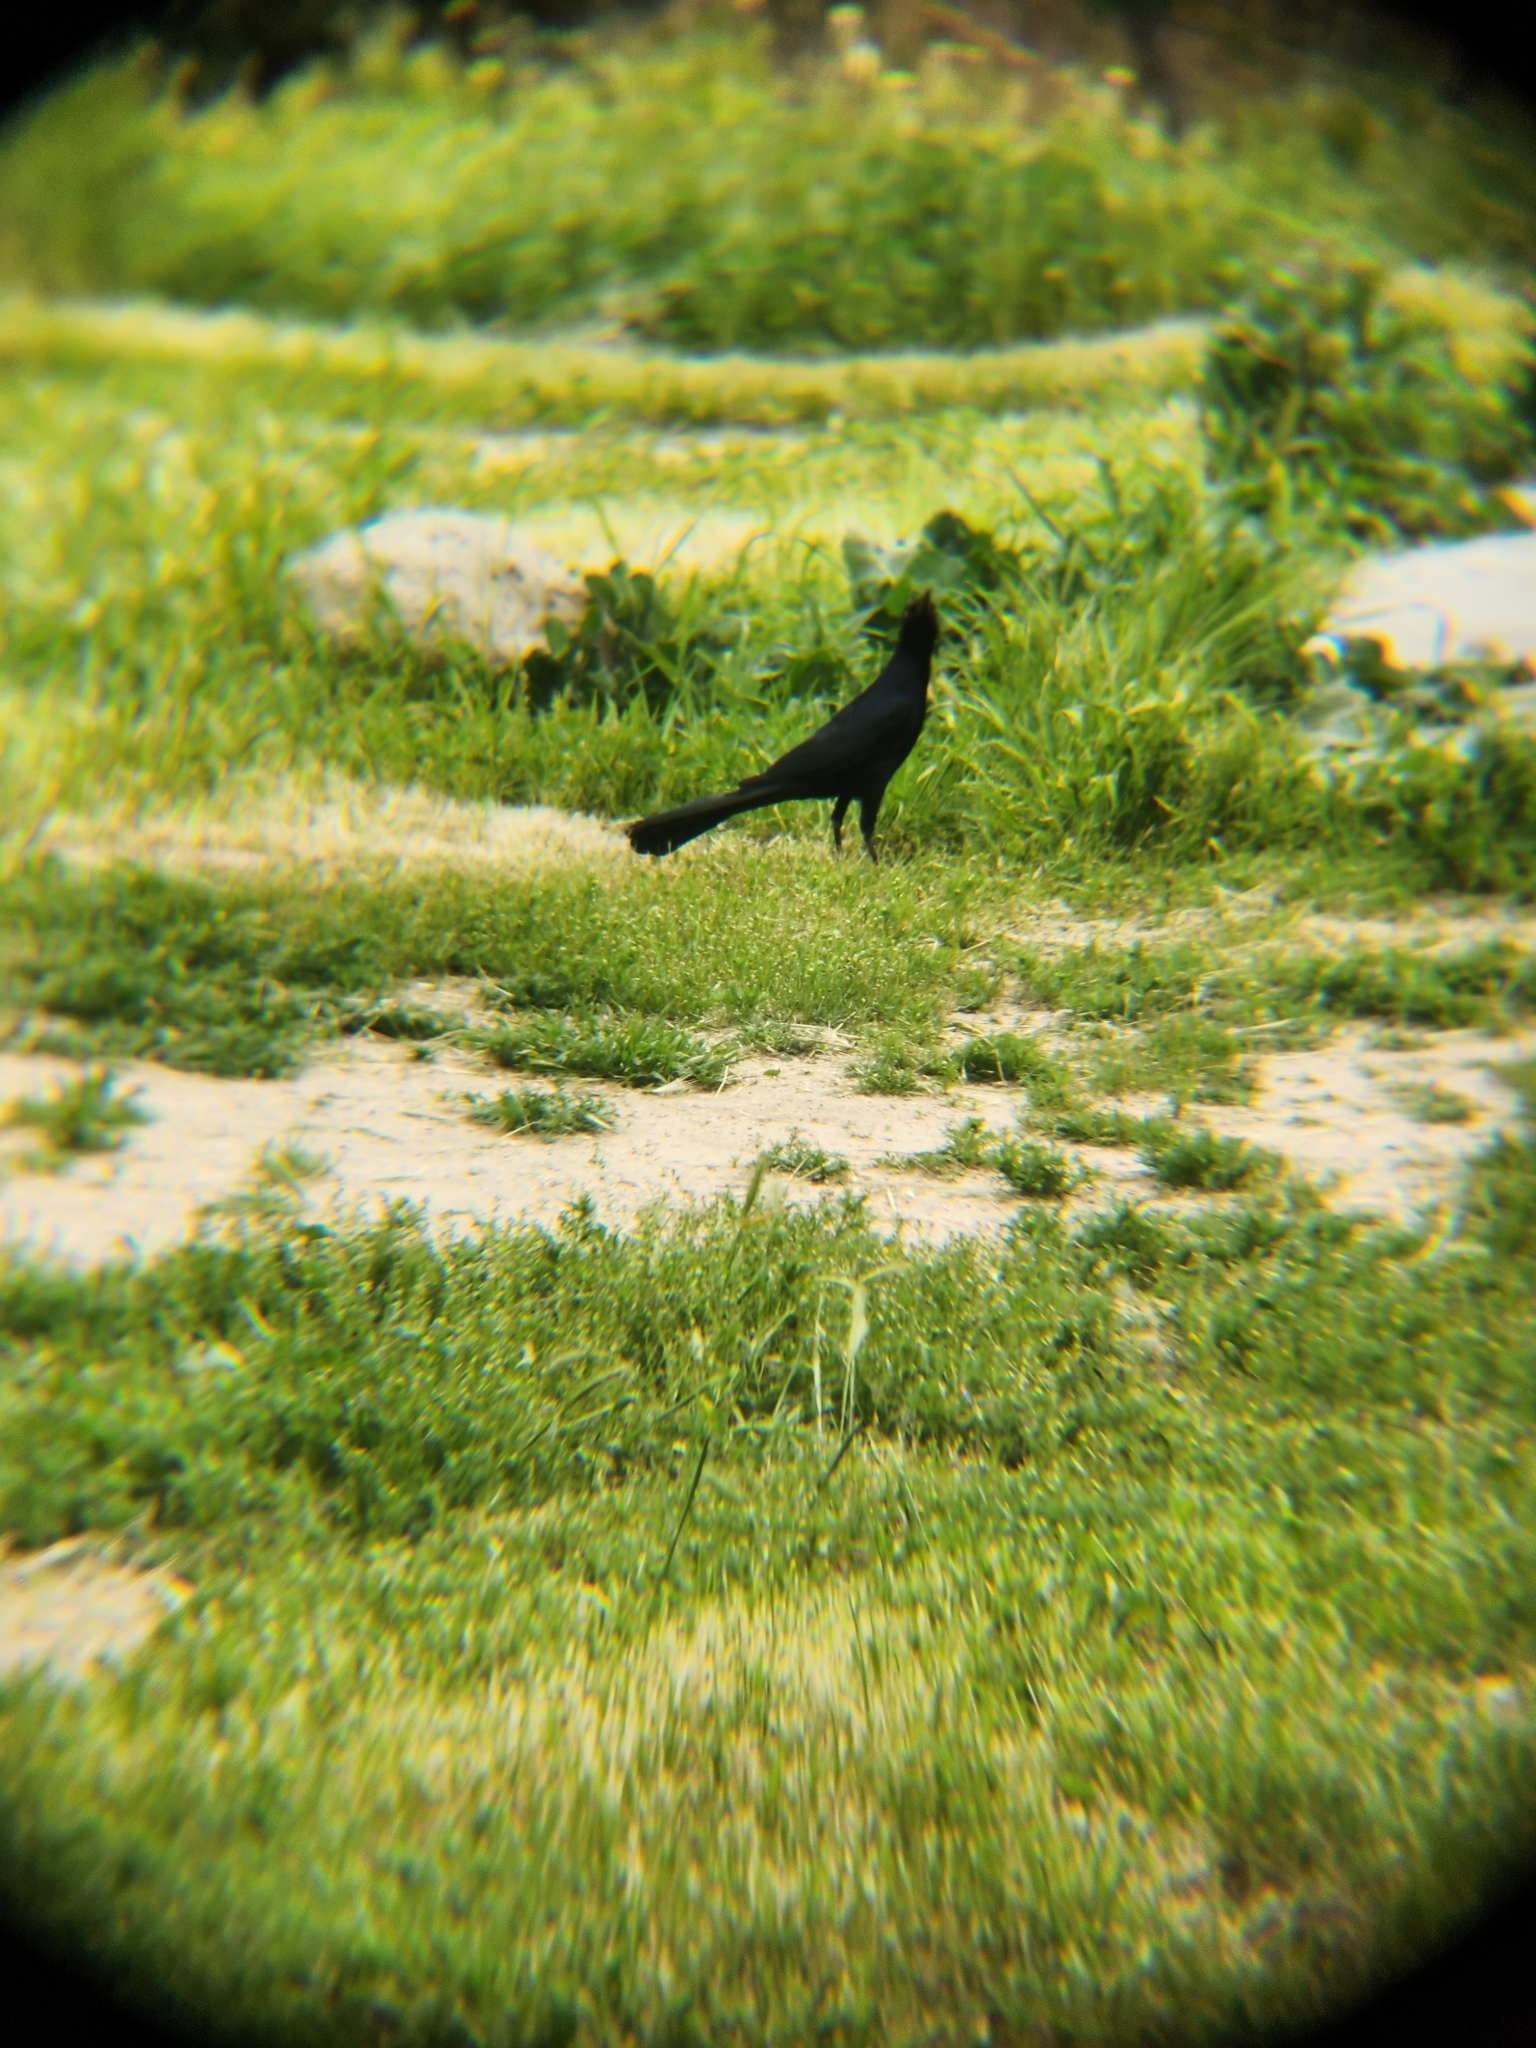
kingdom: Animalia
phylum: Chordata
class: Aves
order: Passeriformes
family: Icteridae
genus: Quiscalus
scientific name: Quiscalus mexicanus
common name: Great-tailed grackle
